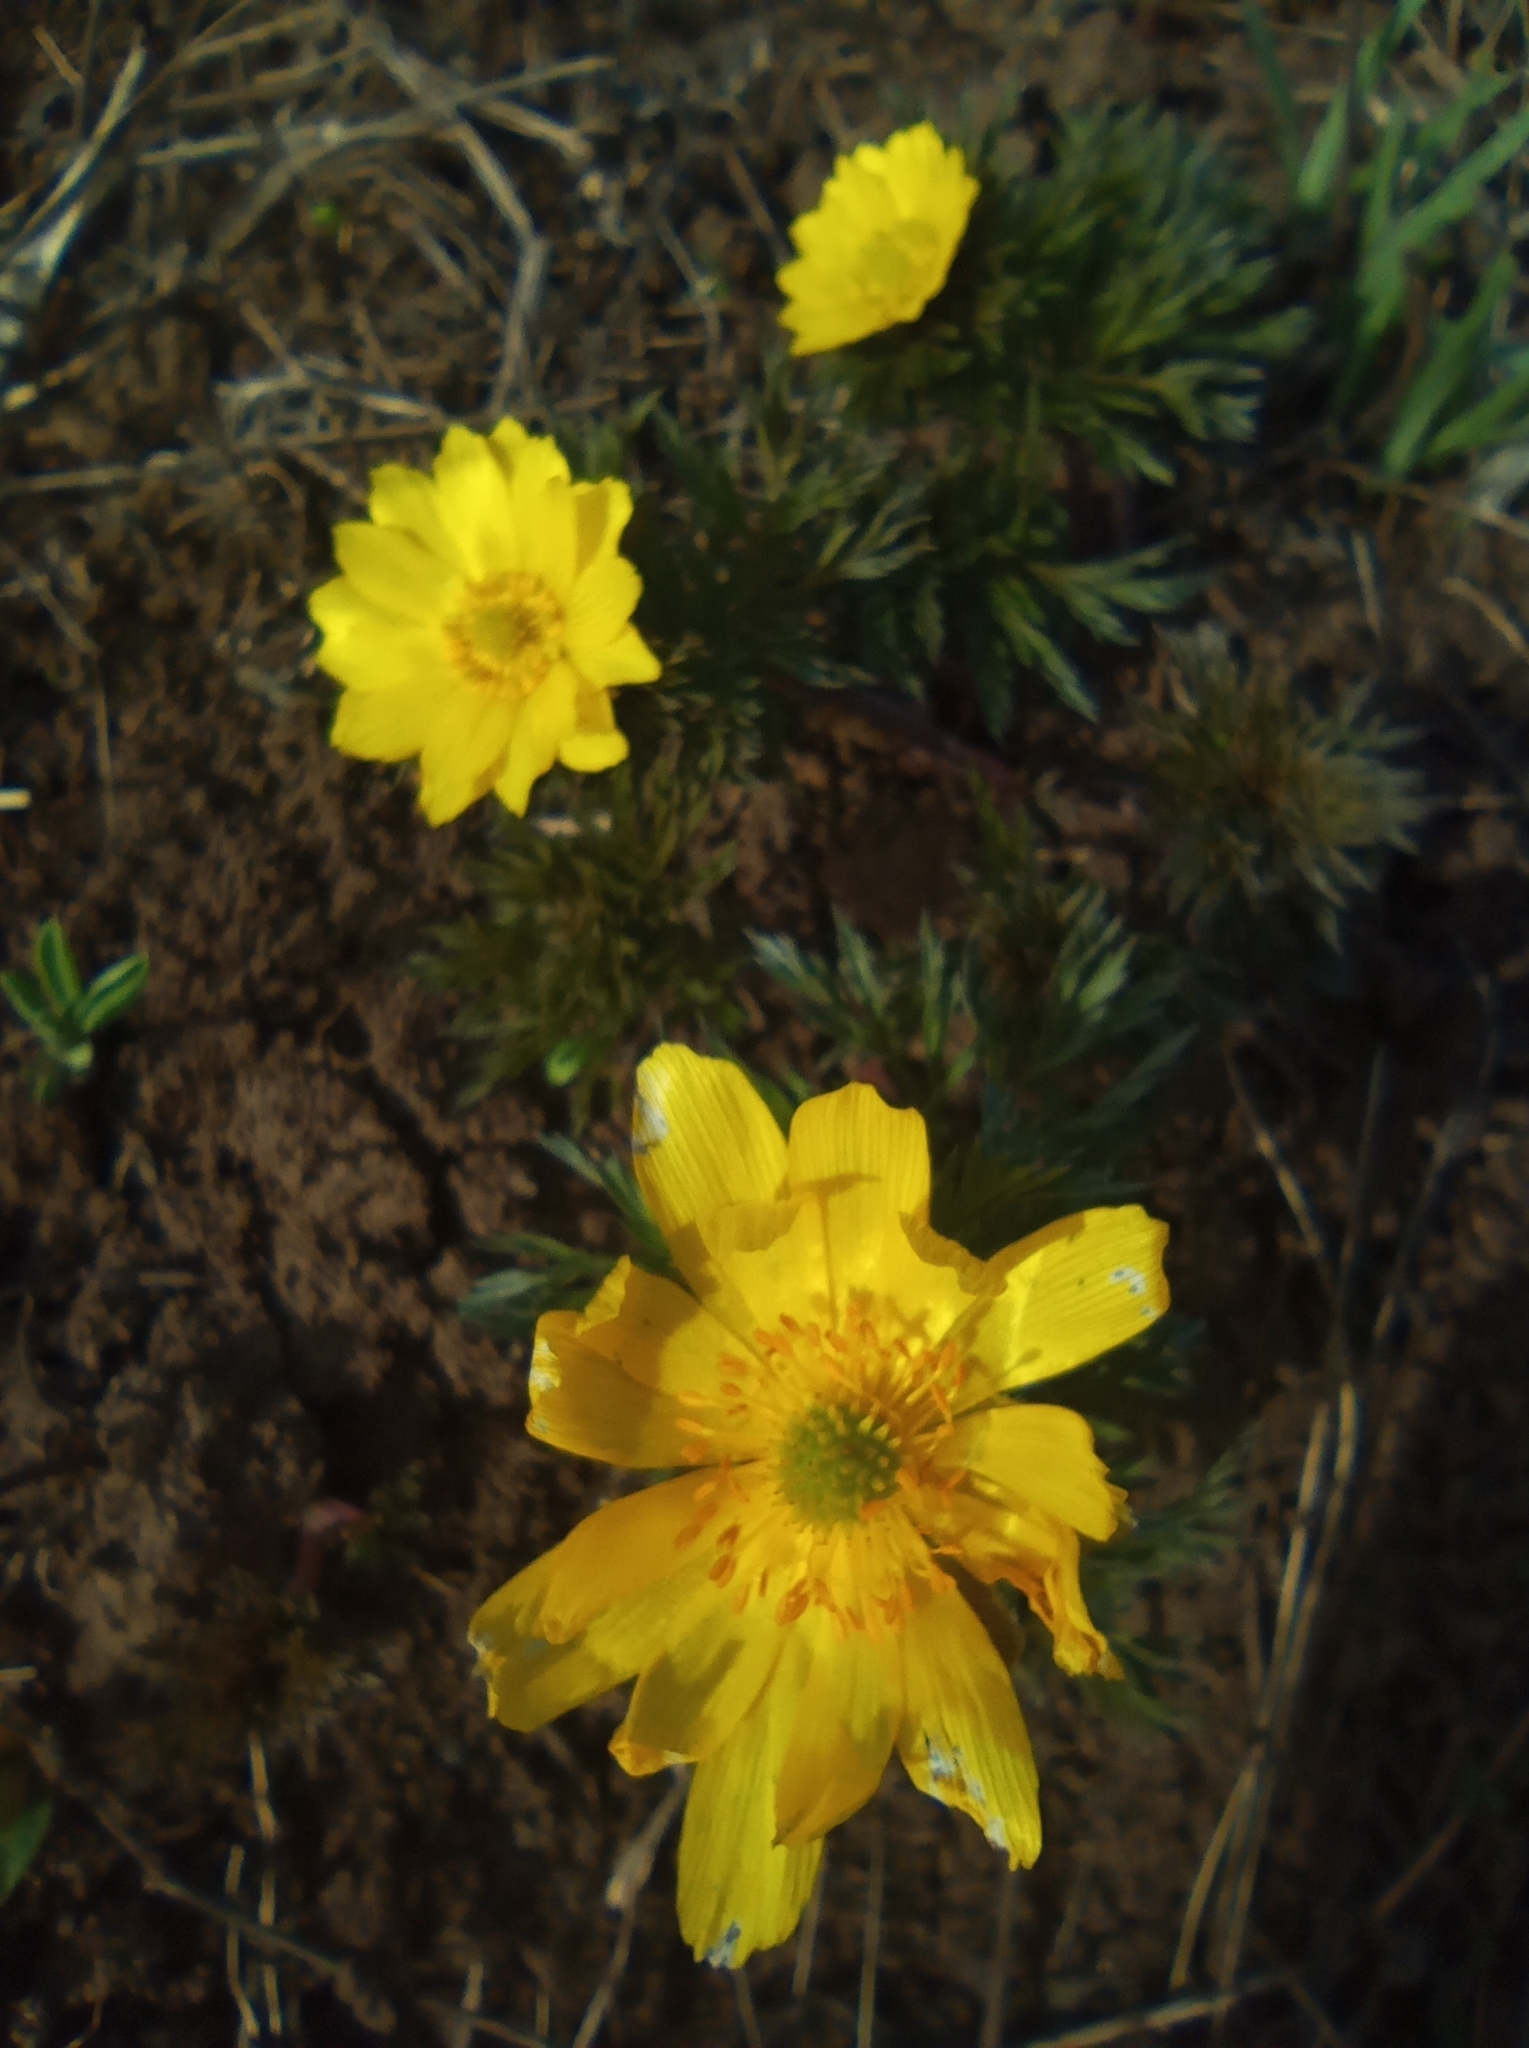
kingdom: Plantae
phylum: Tracheophyta
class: Magnoliopsida
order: Ranunculales
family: Ranunculaceae
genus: Adonis
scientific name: Adonis volgensis
